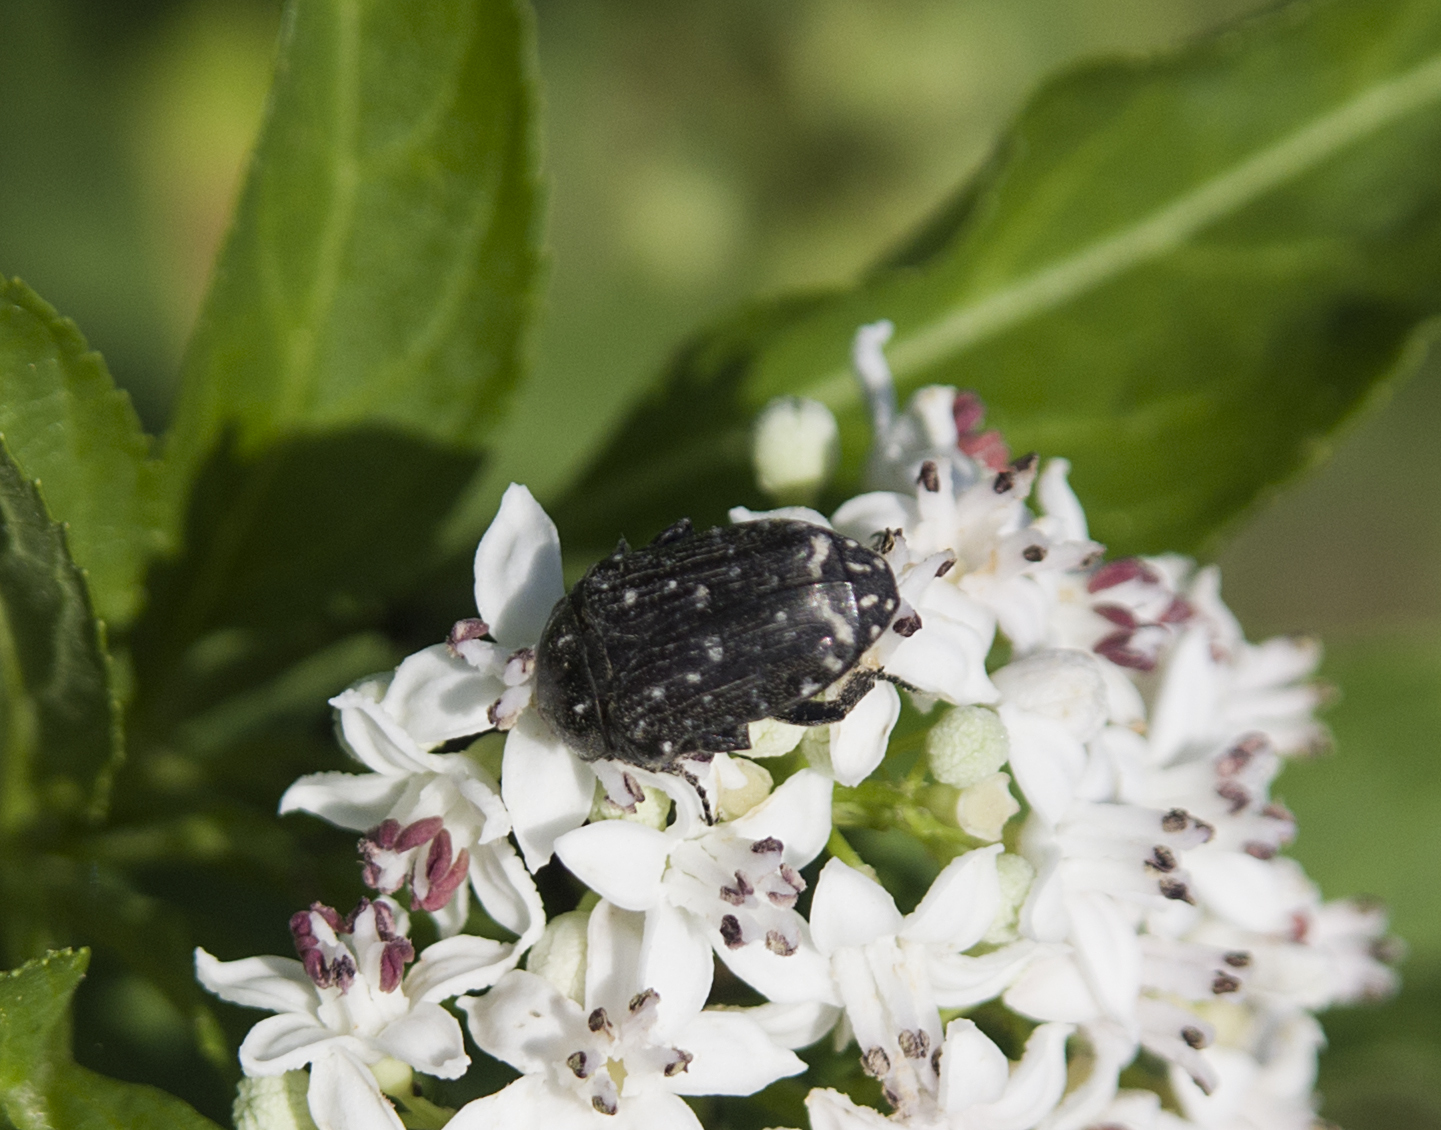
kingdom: Animalia
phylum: Arthropoda
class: Insecta
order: Coleoptera
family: Scarabaeidae
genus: Oxythyrea
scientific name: Oxythyrea funesta
